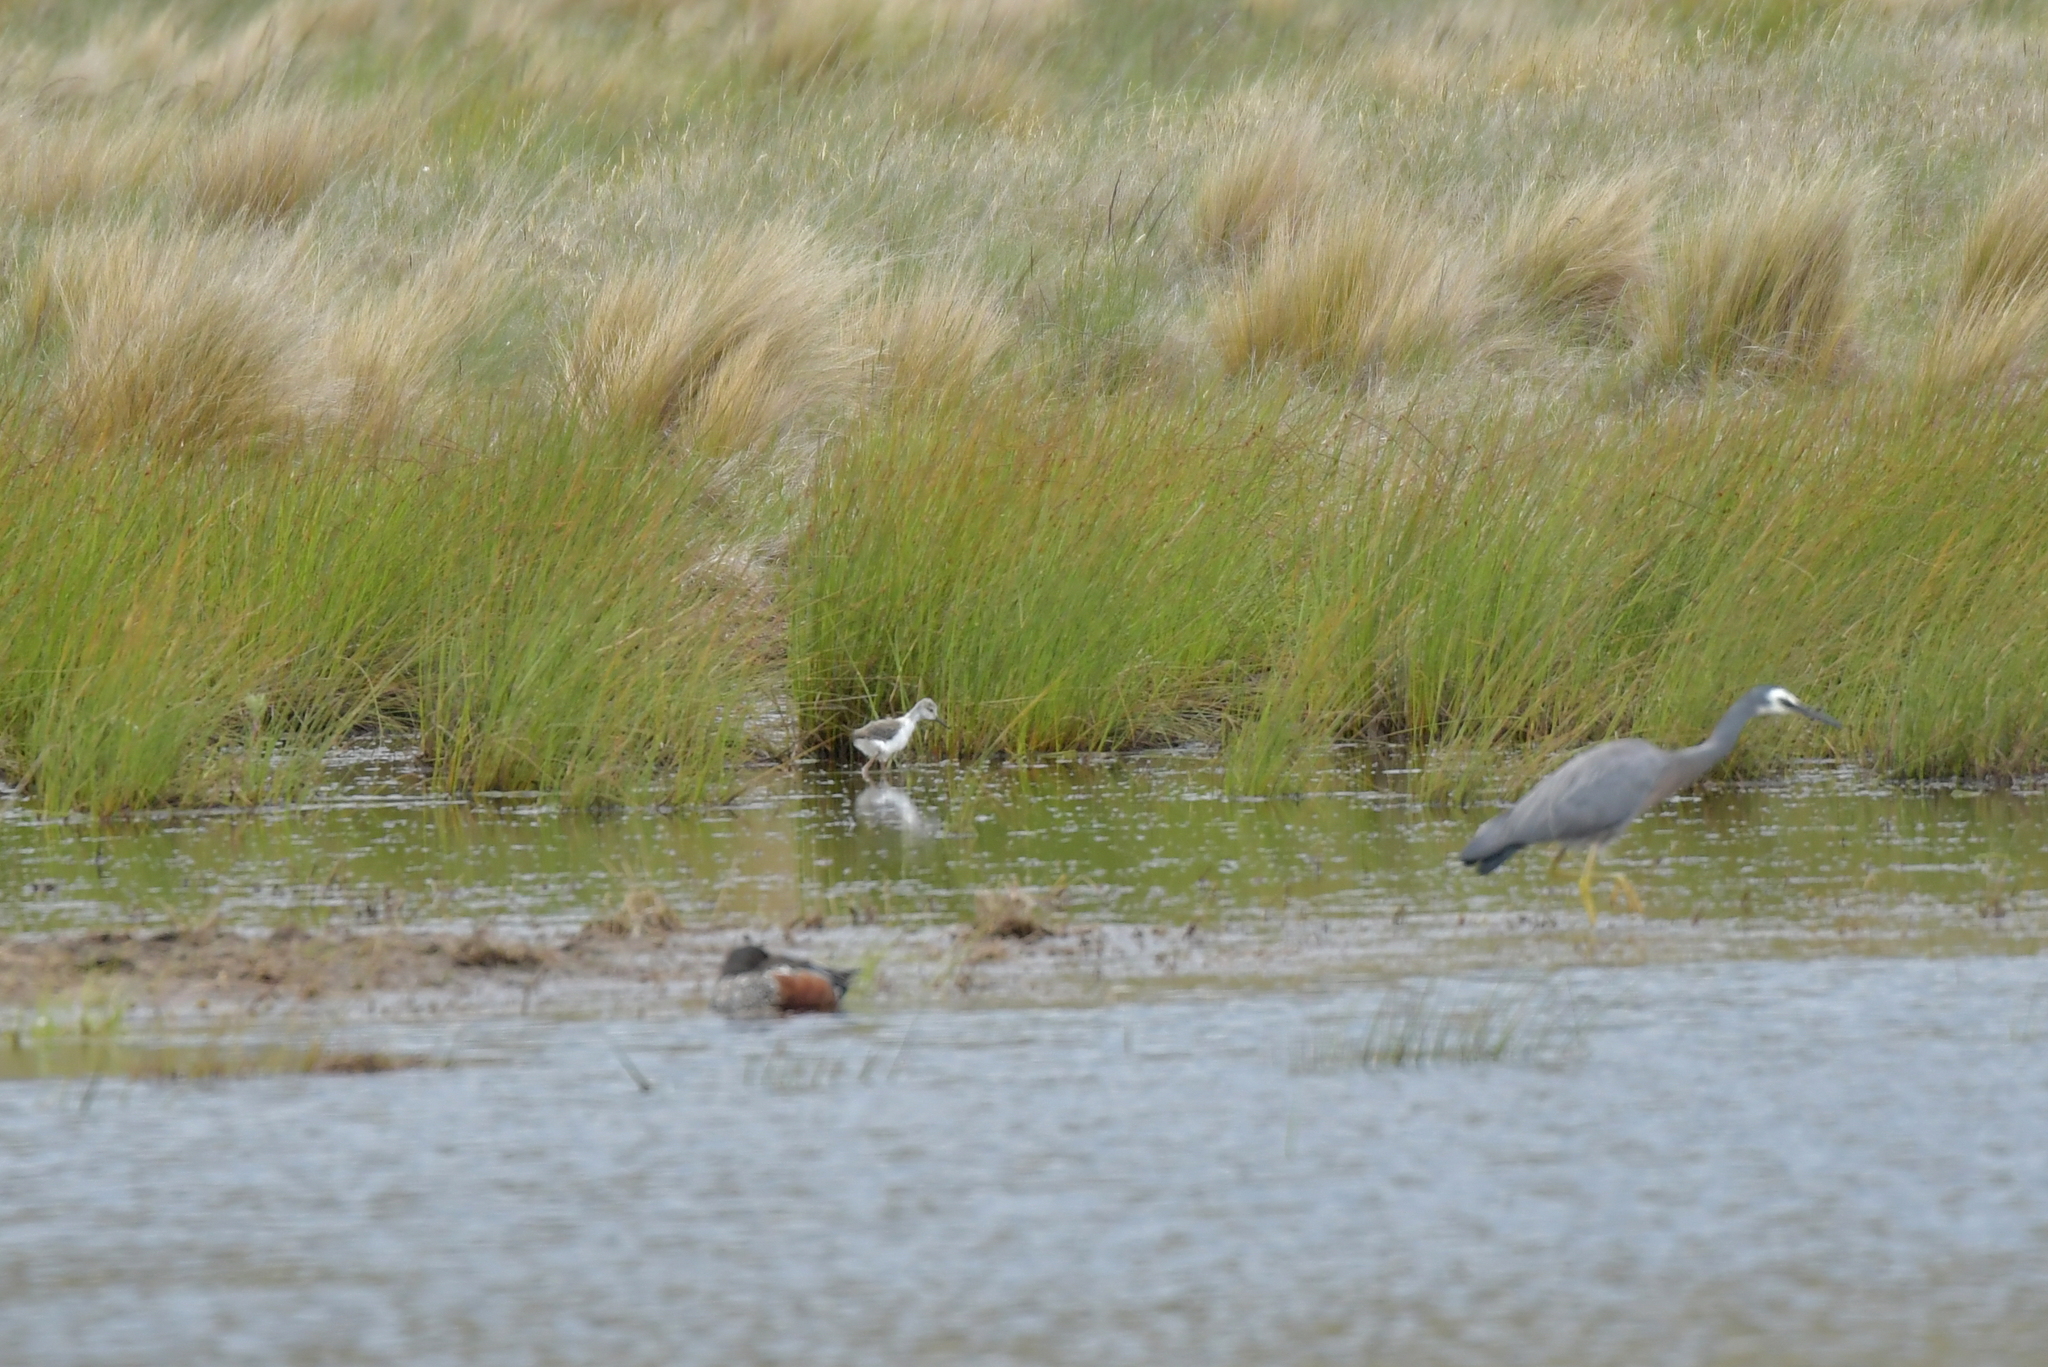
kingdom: Animalia
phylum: Chordata
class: Aves
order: Charadriiformes
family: Recurvirostridae
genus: Himantopus
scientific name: Himantopus leucocephalus
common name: White-headed stilt
